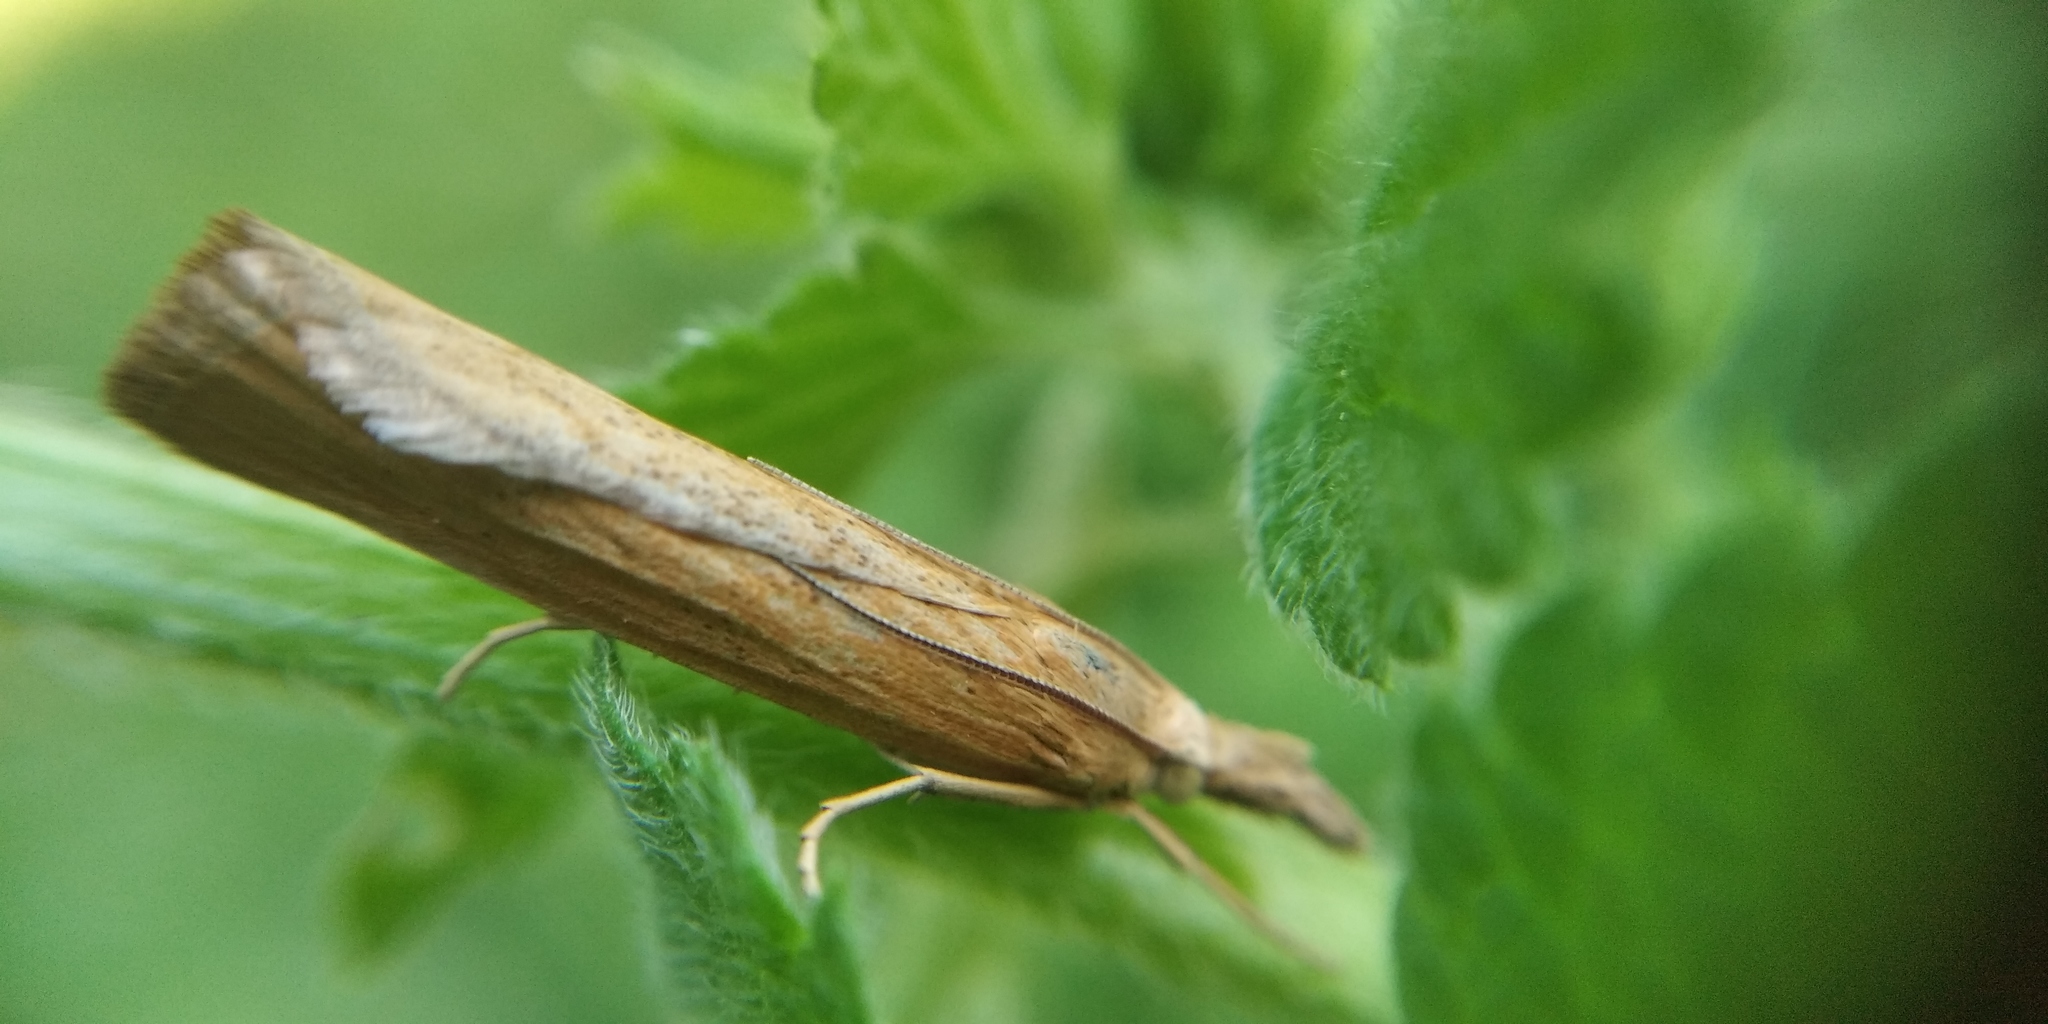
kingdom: Animalia
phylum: Arthropoda
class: Insecta
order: Lepidoptera
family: Crambidae
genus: Pediasia
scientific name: Pediasia luteella
